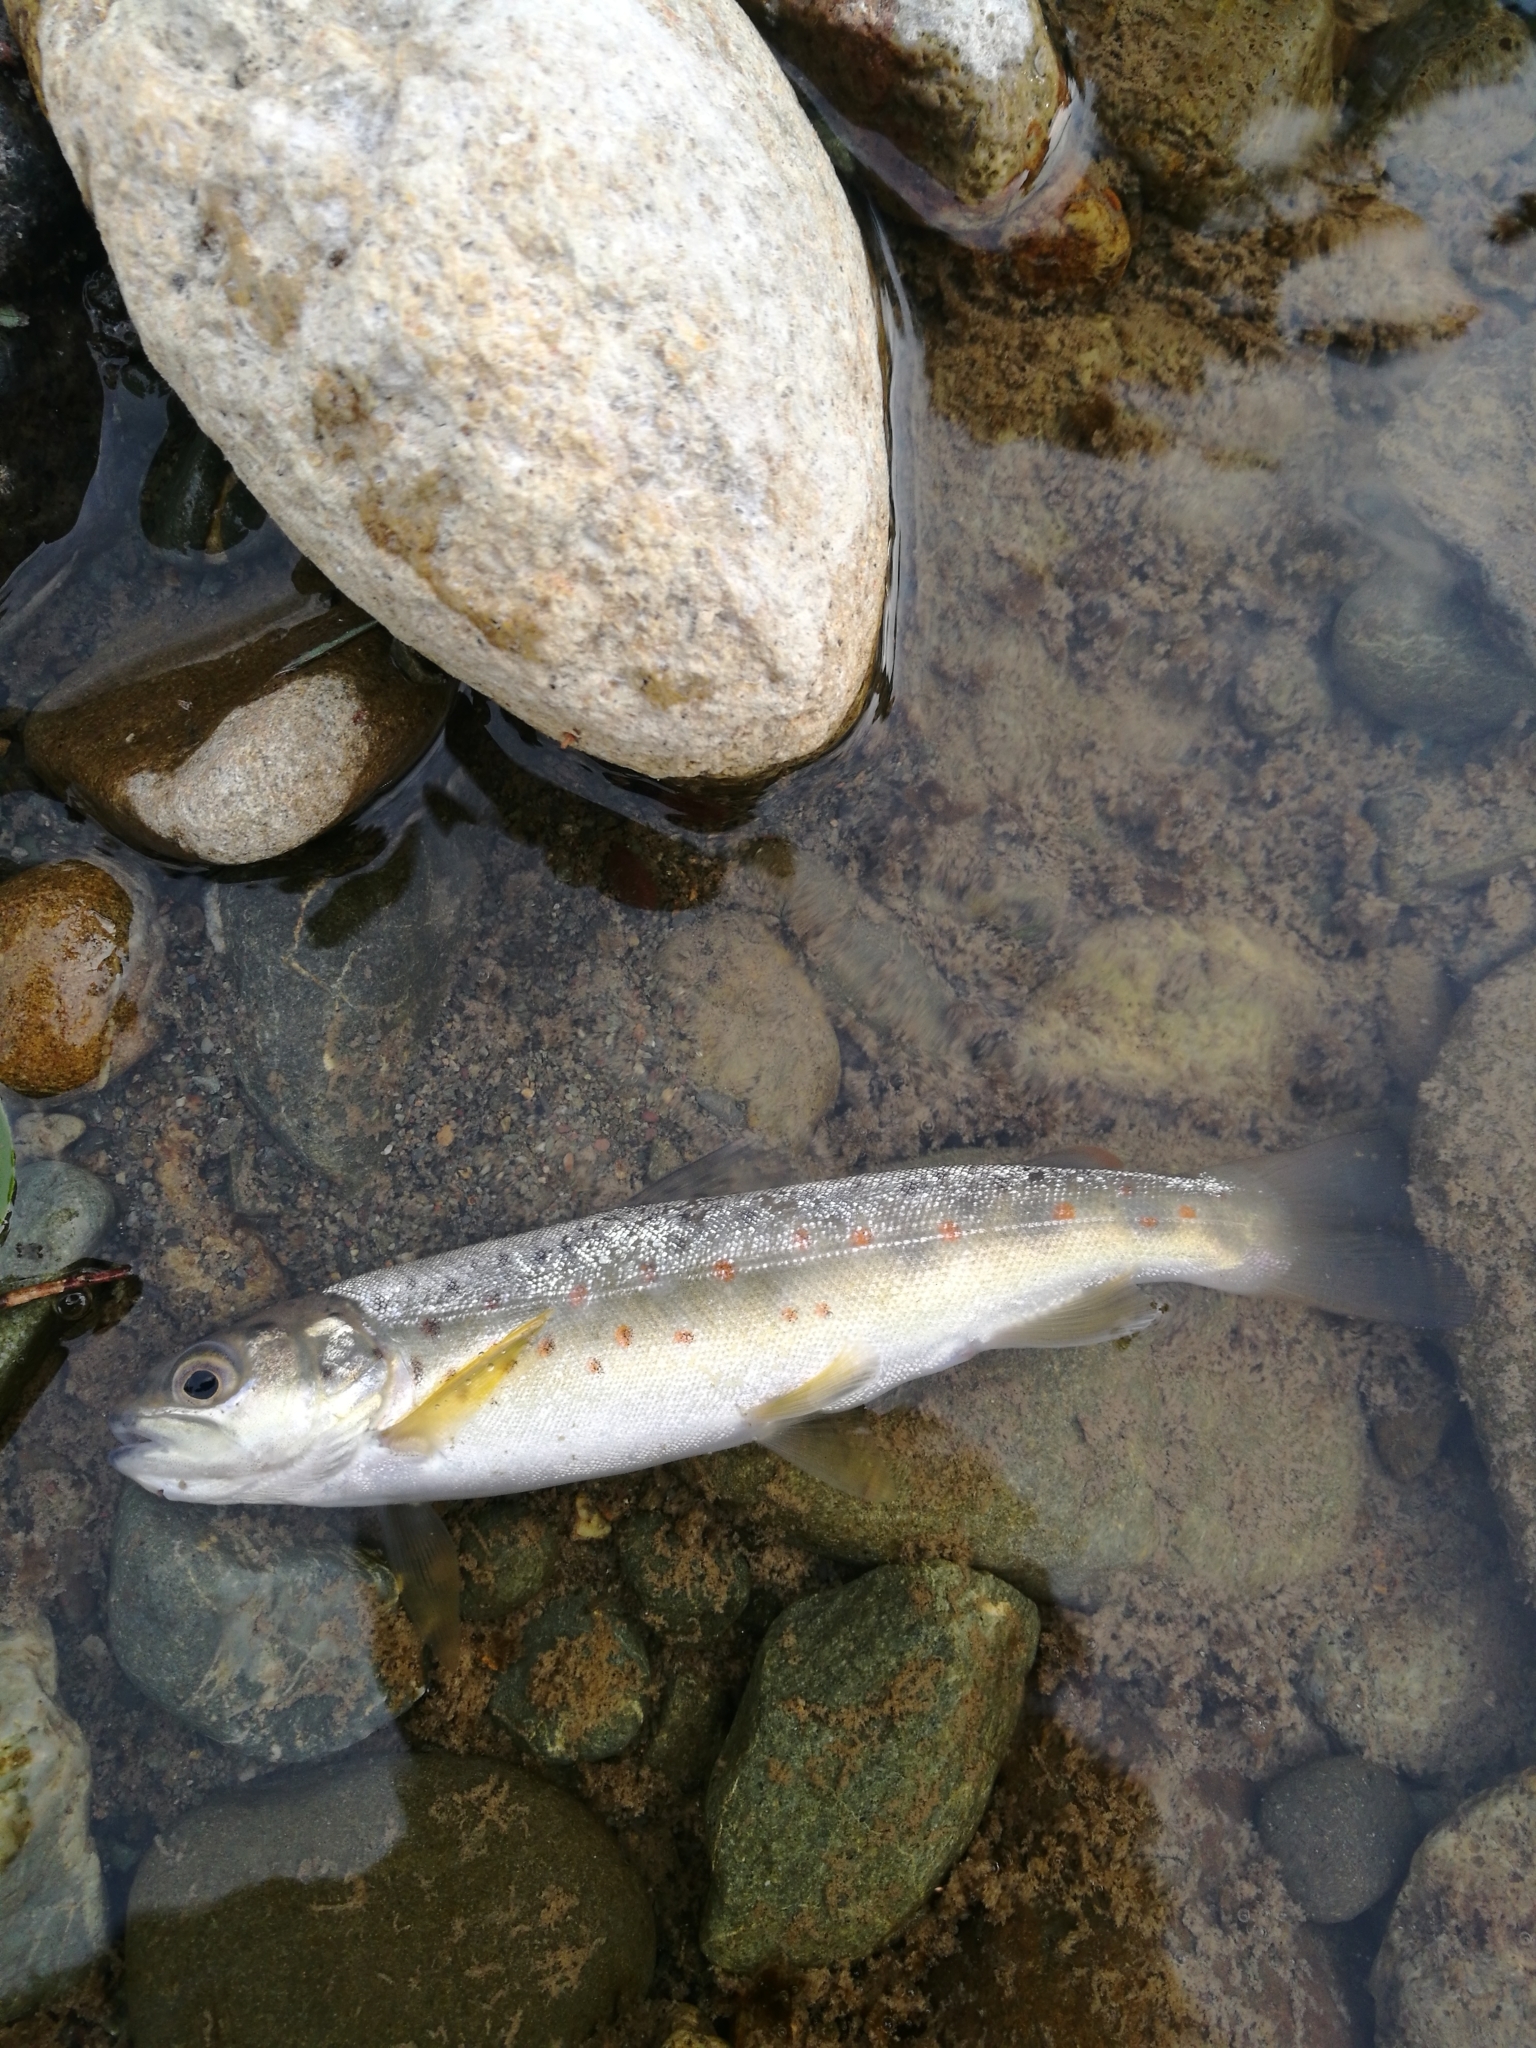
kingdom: Animalia
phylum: Chordata
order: Salmoniformes
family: Salmonidae
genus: Salmo
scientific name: Salmo trutta
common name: Brown trout
